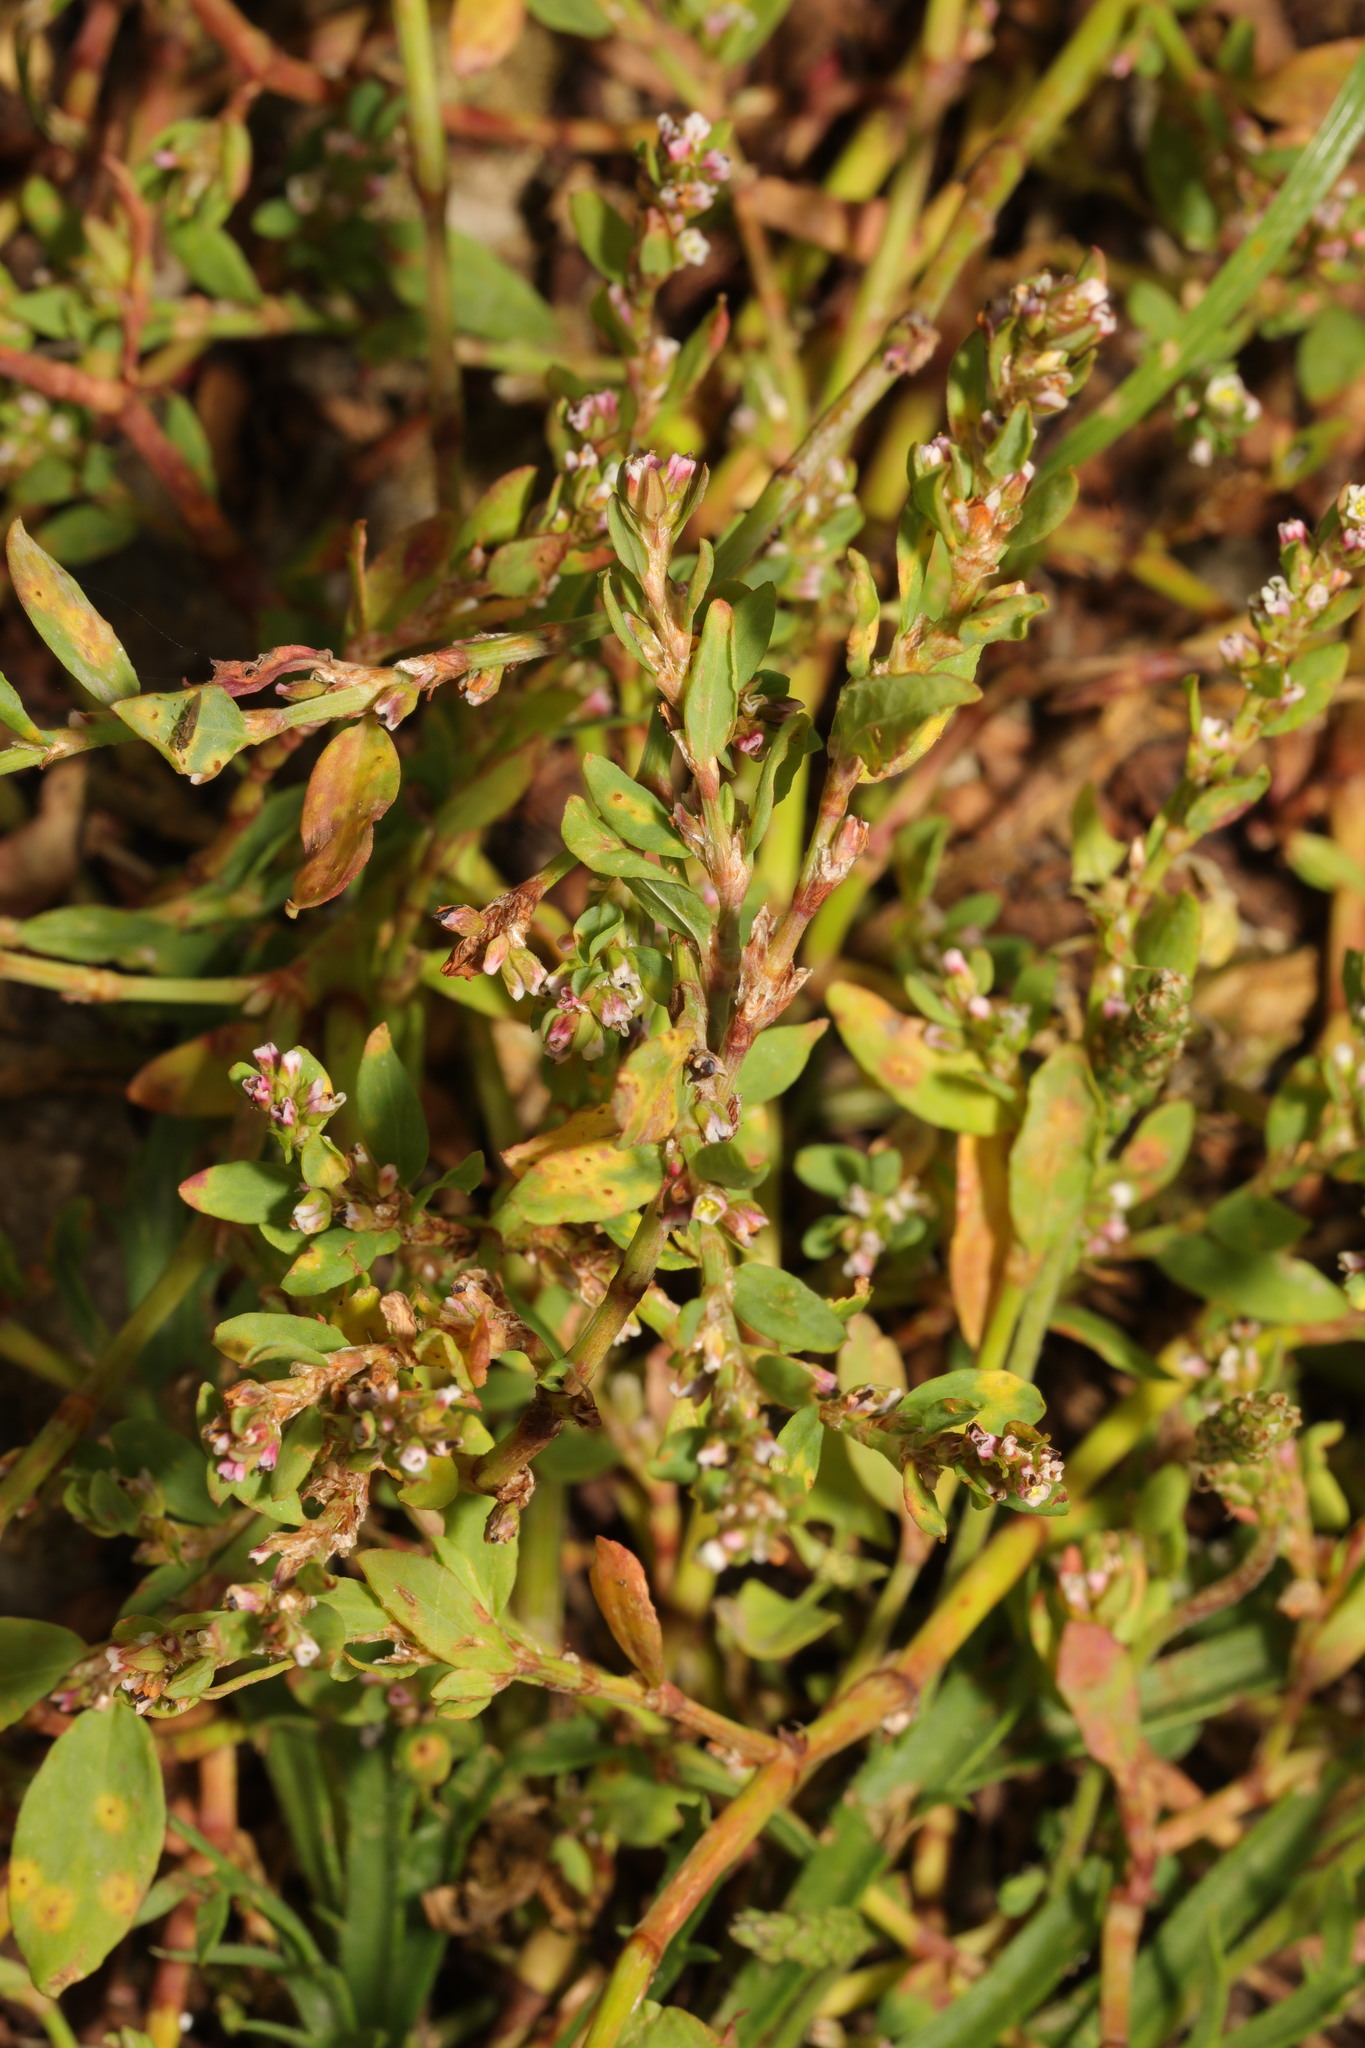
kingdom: Plantae
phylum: Tracheophyta
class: Magnoliopsida
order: Caryophyllales
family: Polygonaceae
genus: Polygonum
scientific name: Polygonum aviculare
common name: Prostrate knotweed
